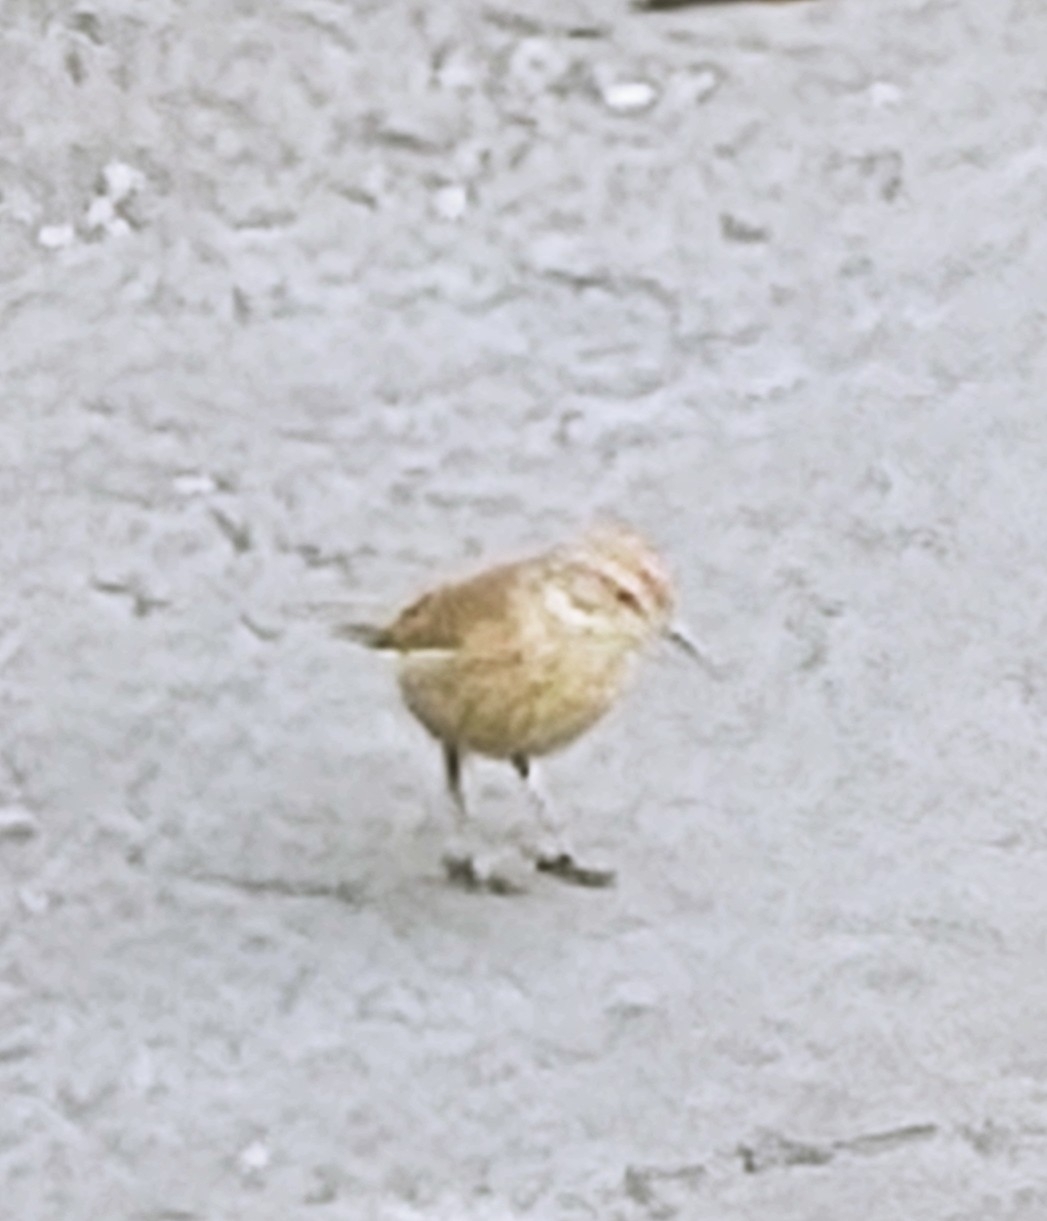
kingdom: Animalia
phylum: Chordata
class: Aves
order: Passeriformes
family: Parulidae
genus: Setophaga
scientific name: Setophaga palmarum
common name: Palm warbler
